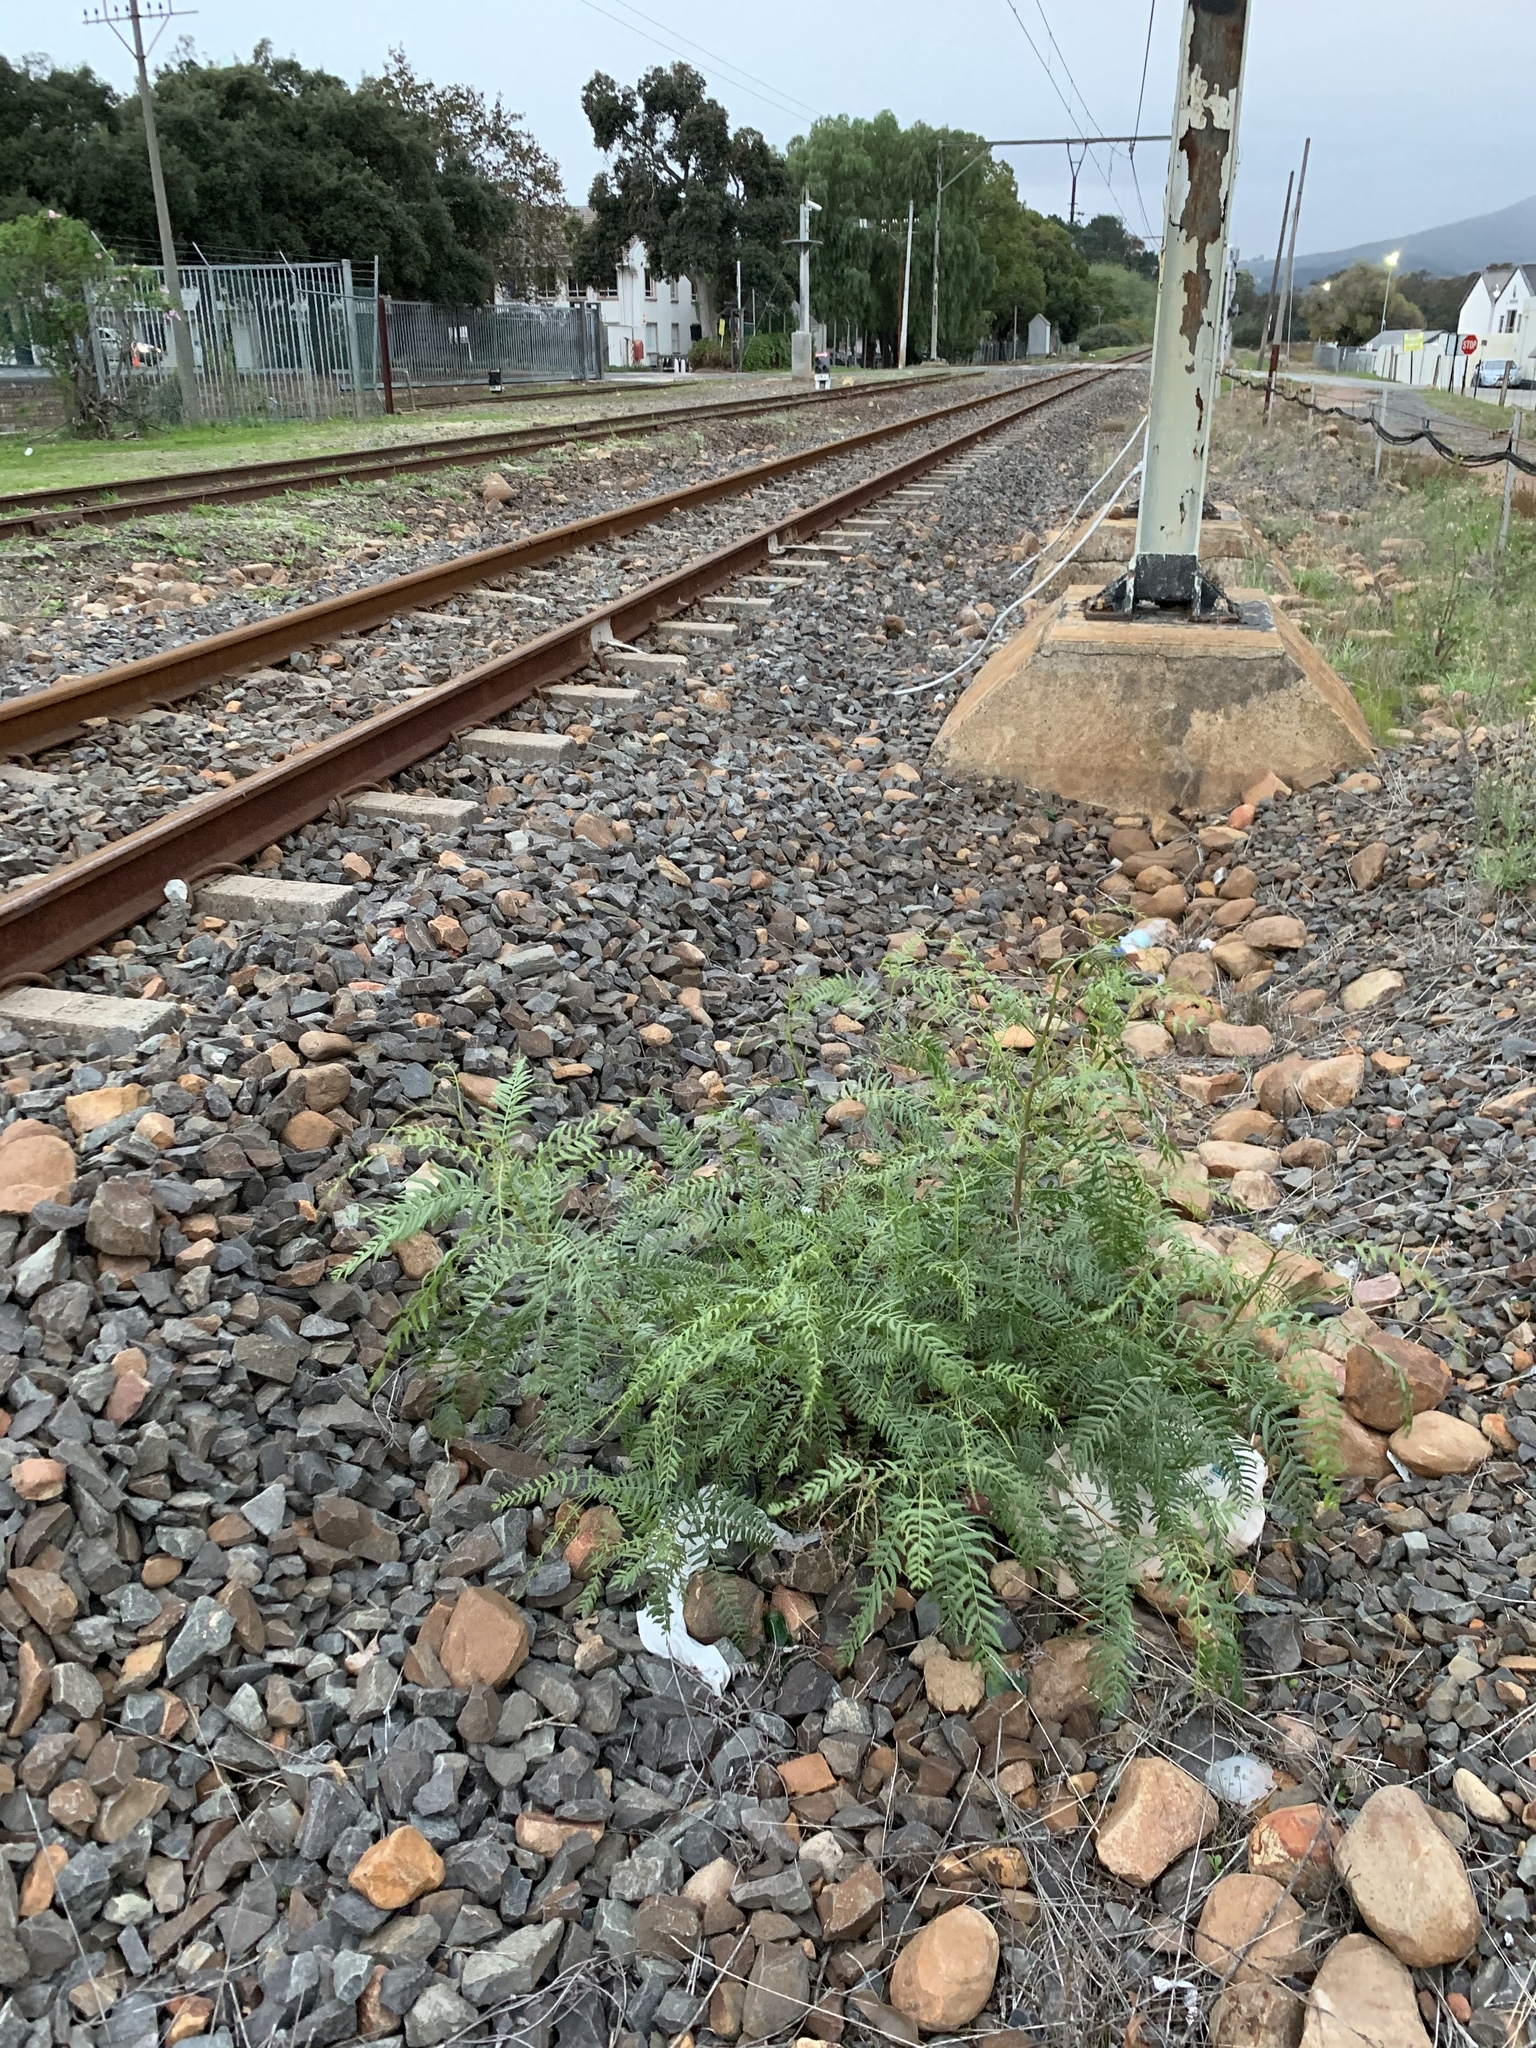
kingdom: Plantae
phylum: Tracheophyta
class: Magnoliopsida
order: Sapindales
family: Anacardiaceae
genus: Schinus
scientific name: Schinus molle
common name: Peruvian peppertree
